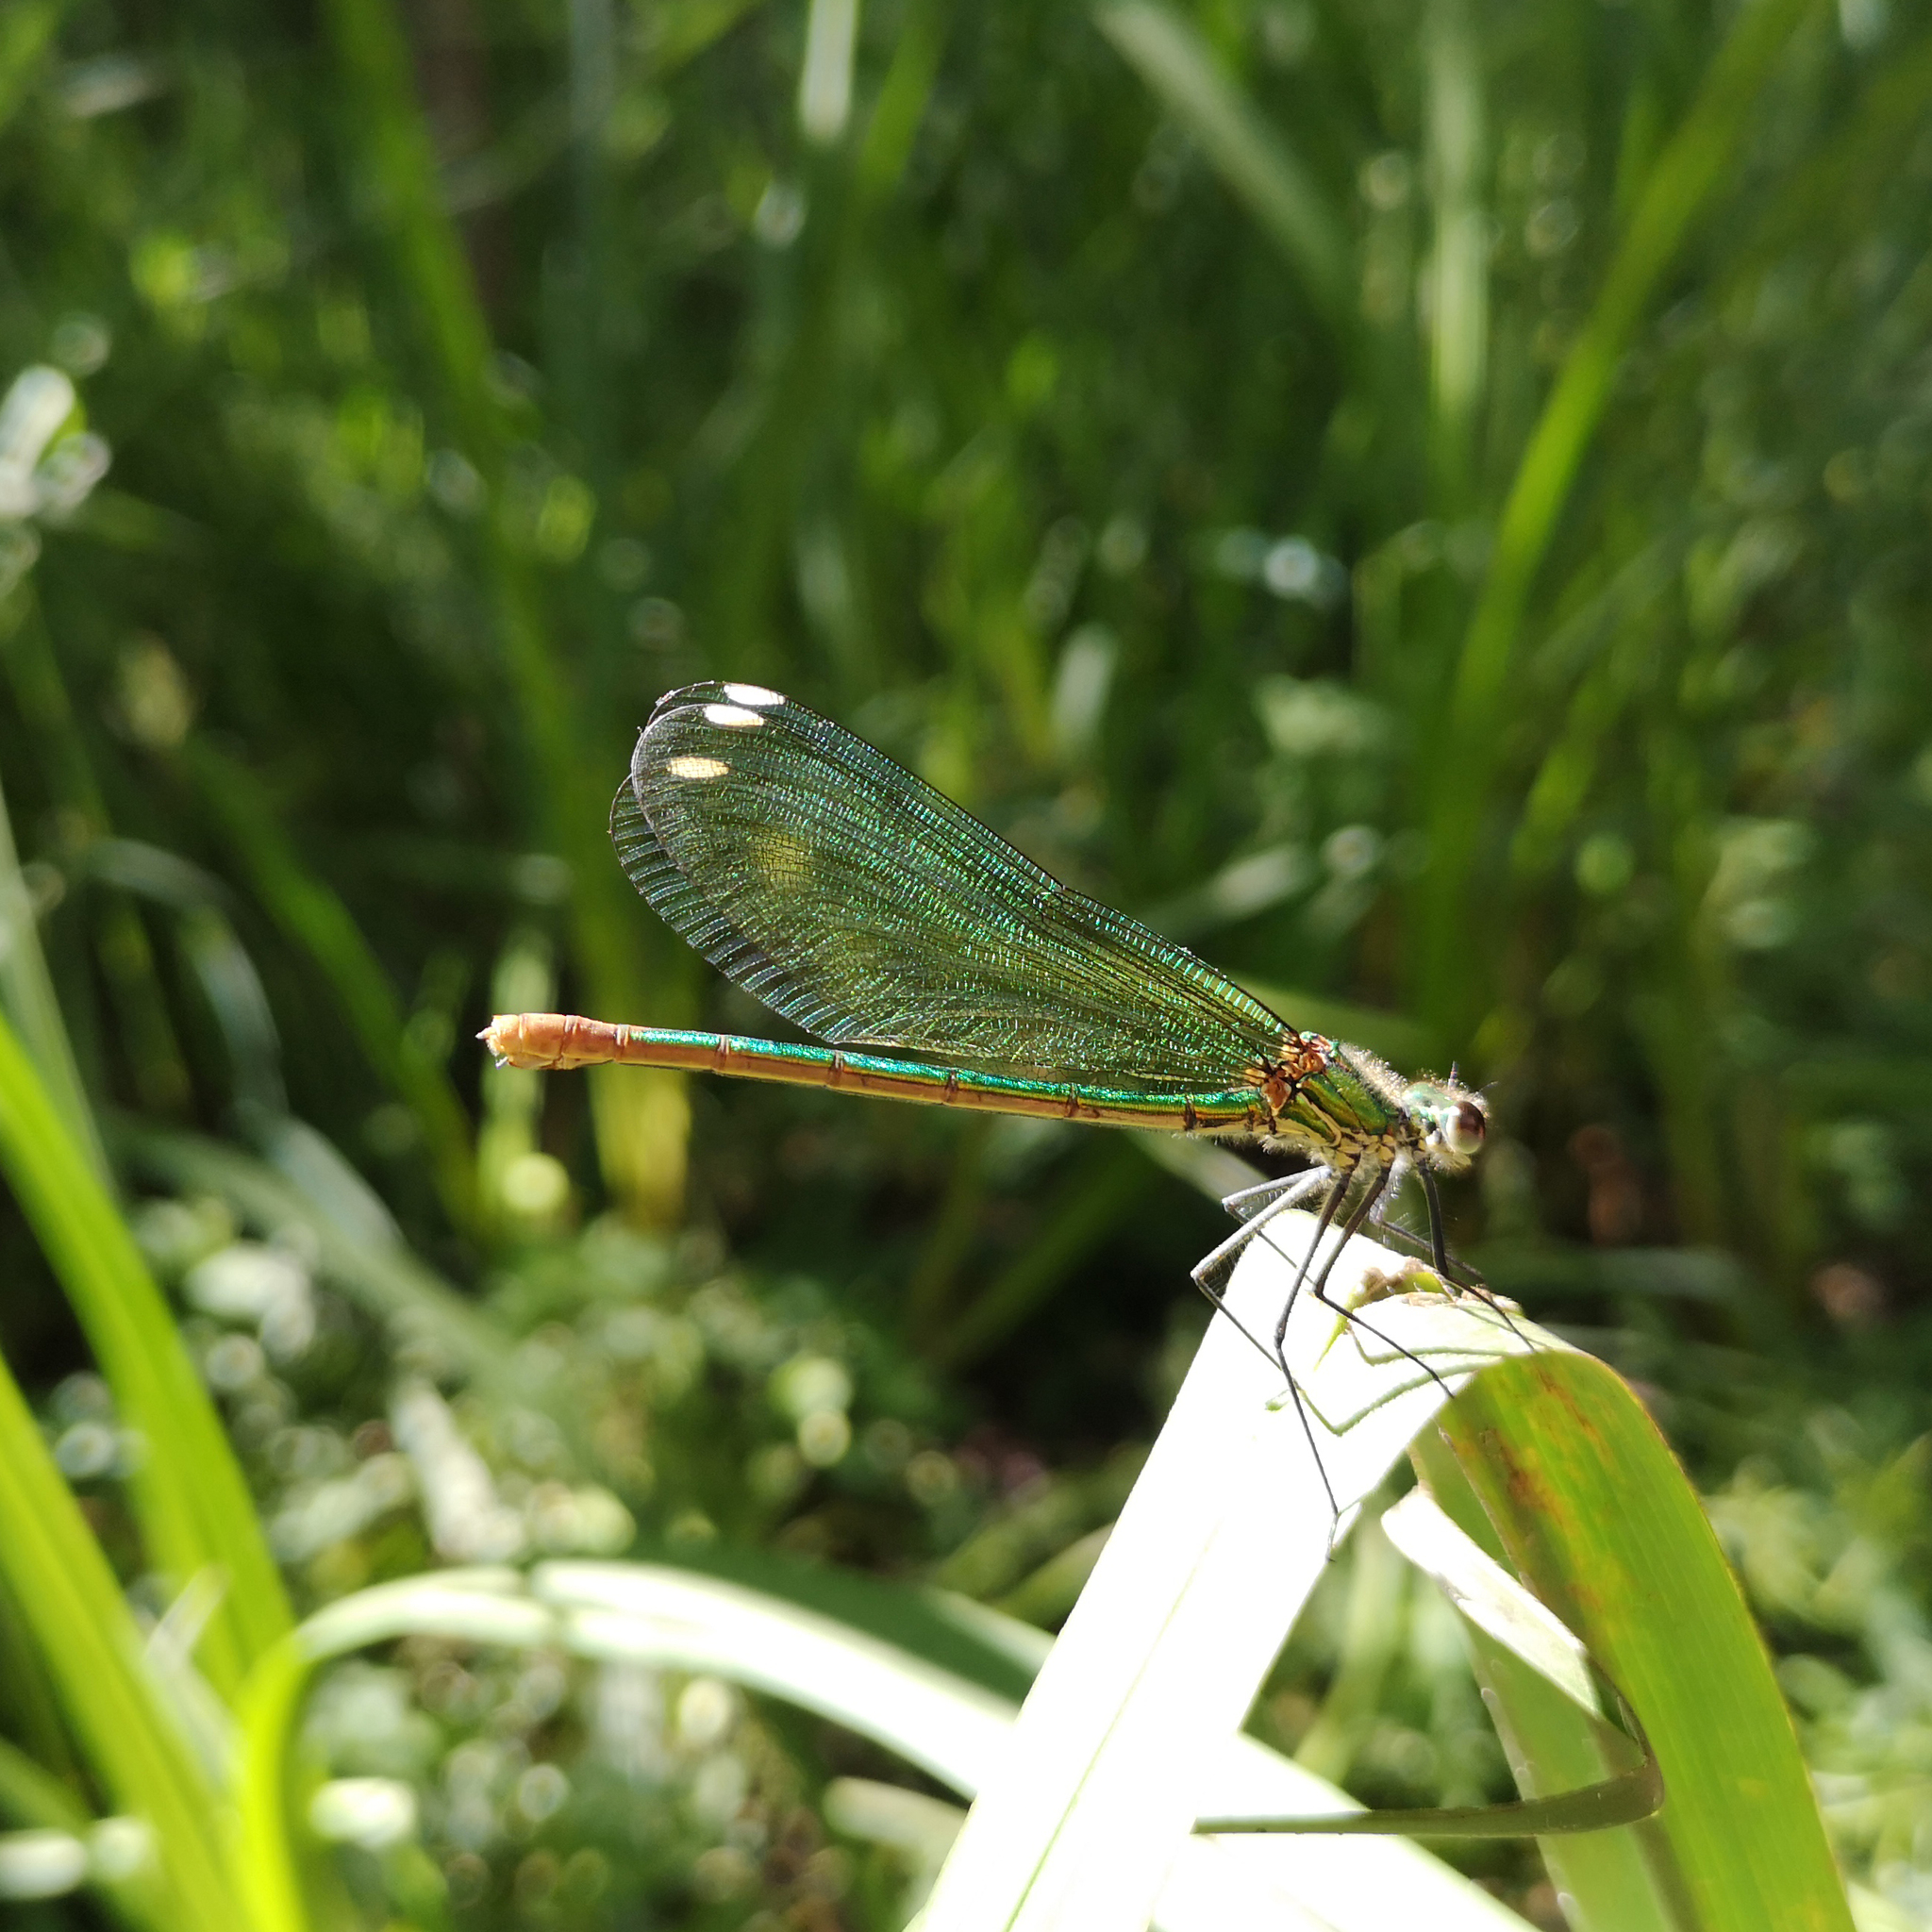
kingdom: Animalia
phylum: Arthropoda
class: Insecta
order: Odonata
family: Calopterygidae
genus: Calopteryx
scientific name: Calopteryx xanthostoma
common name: Western demoiselle
